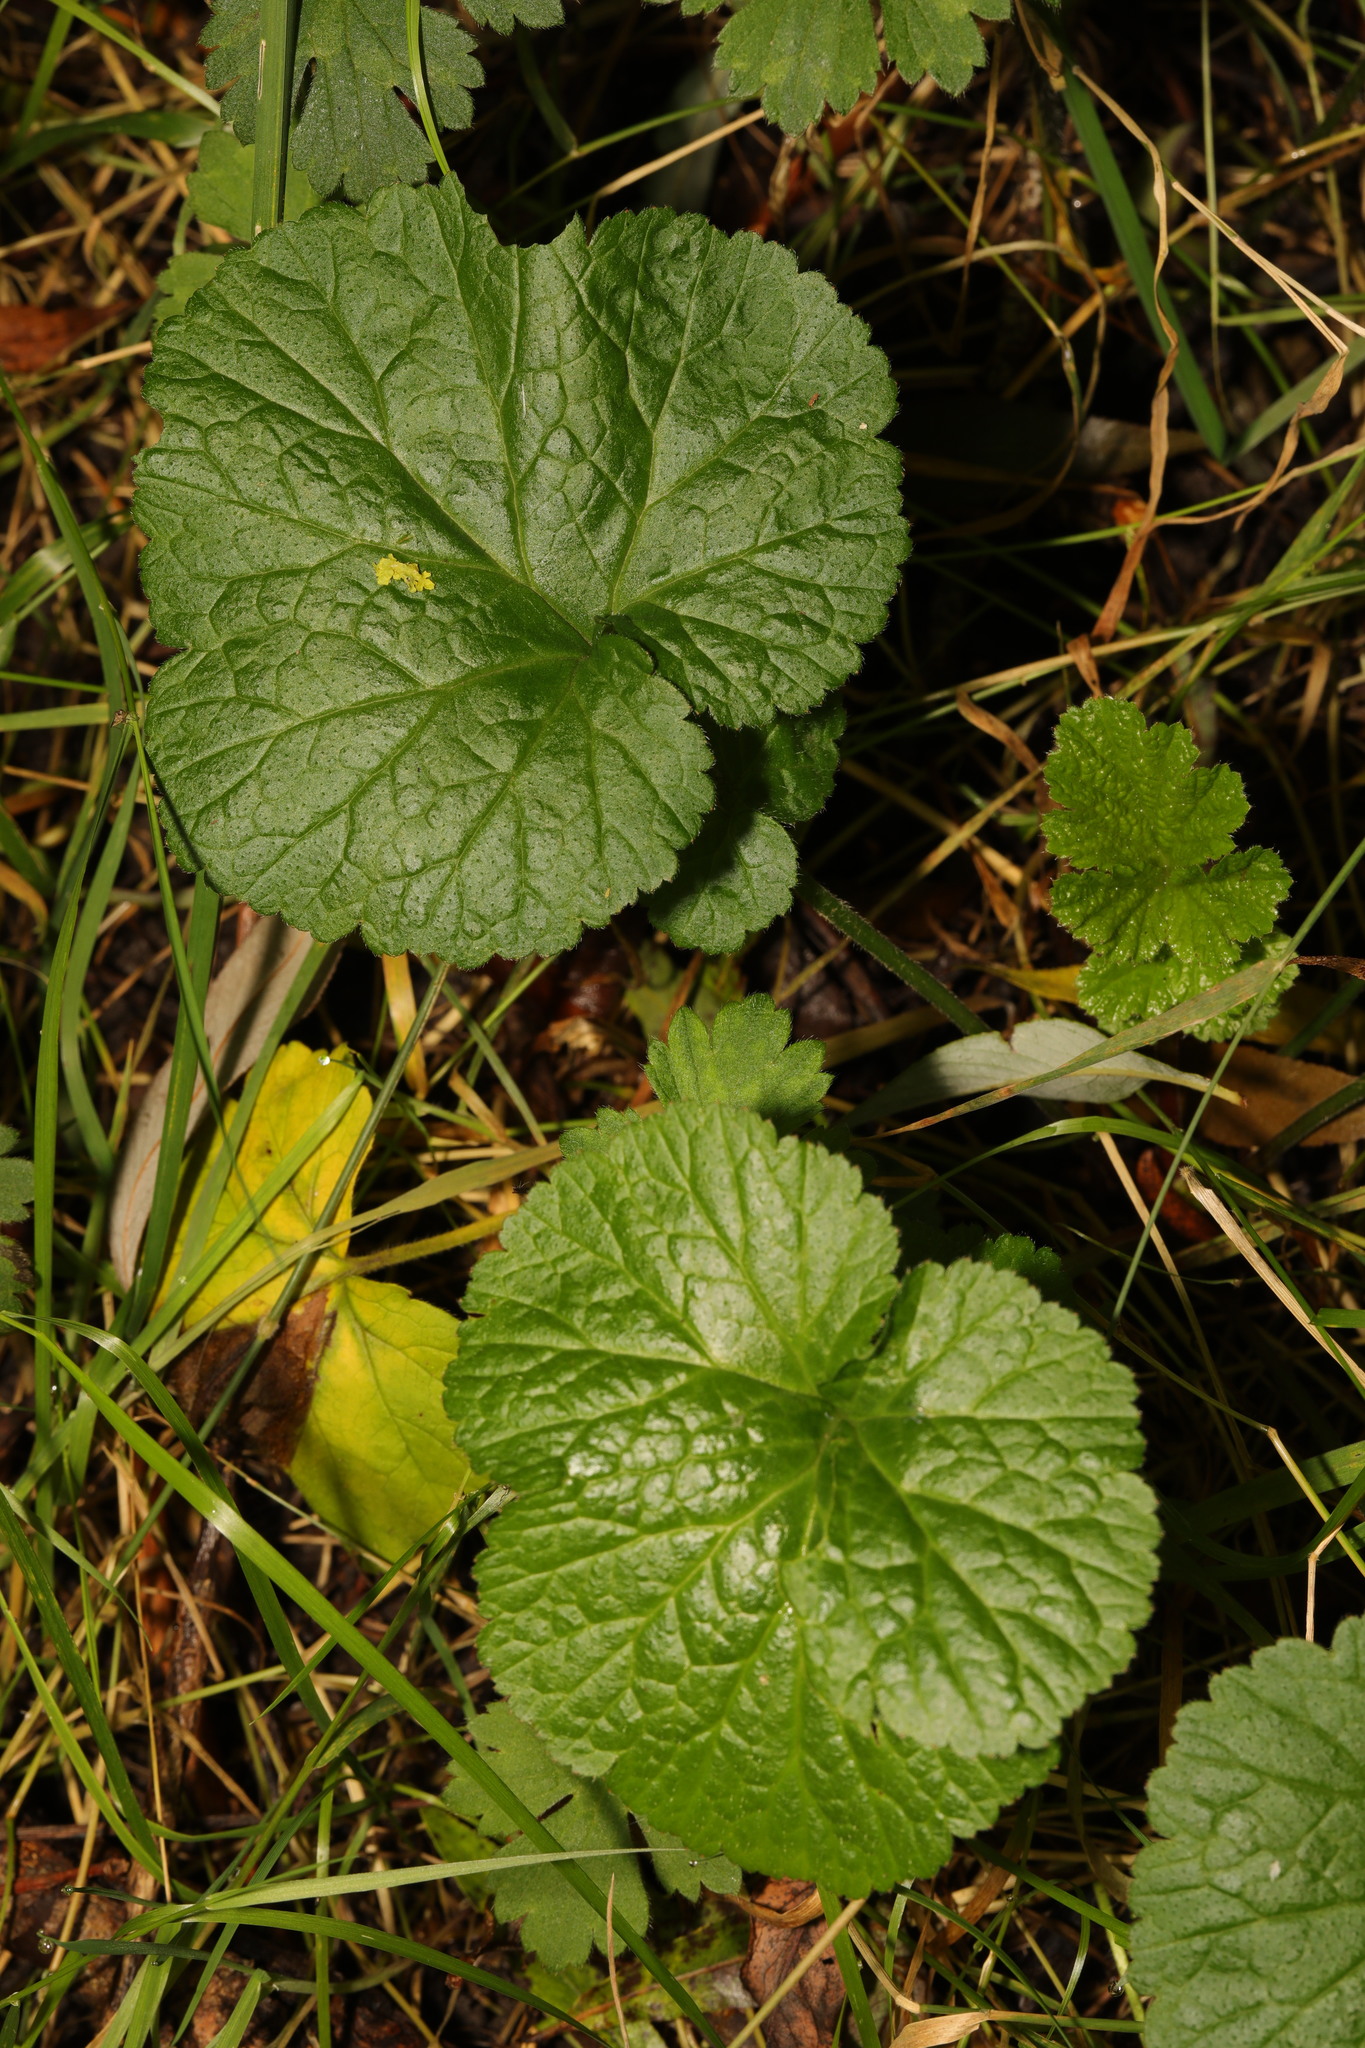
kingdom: Plantae
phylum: Tracheophyta
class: Magnoliopsida
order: Rosales
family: Rosaceae
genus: Geum
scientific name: Geum urbanum
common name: Wood avens
